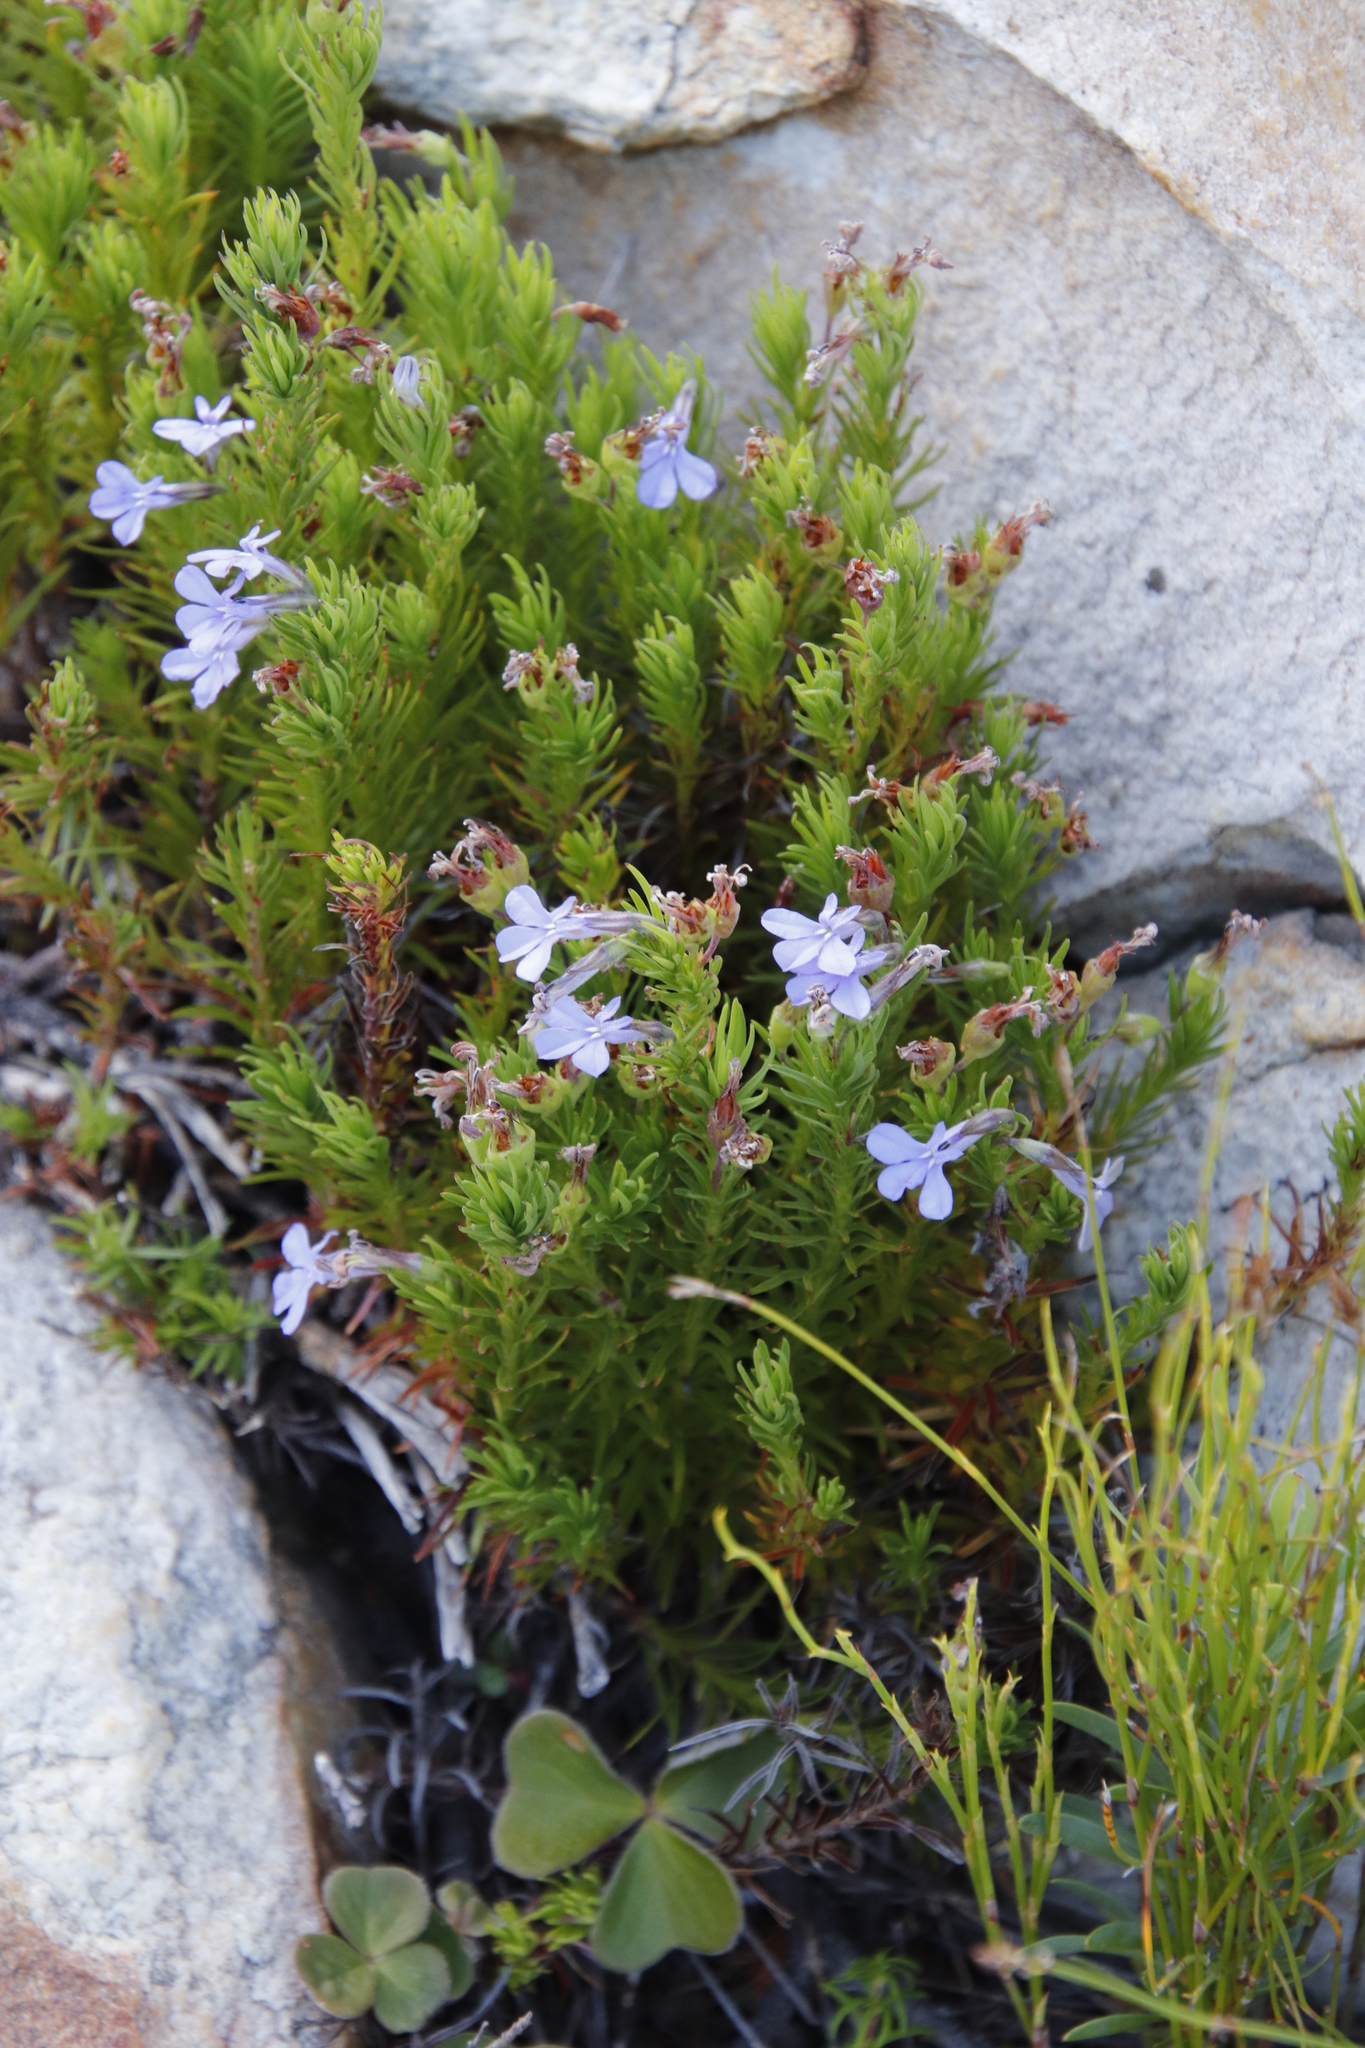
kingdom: Plantae
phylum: Tracheophyta
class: Magnoliopsida
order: Asterales
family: Campanulaceae
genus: Lobelia
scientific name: Lobelia pinifolia
